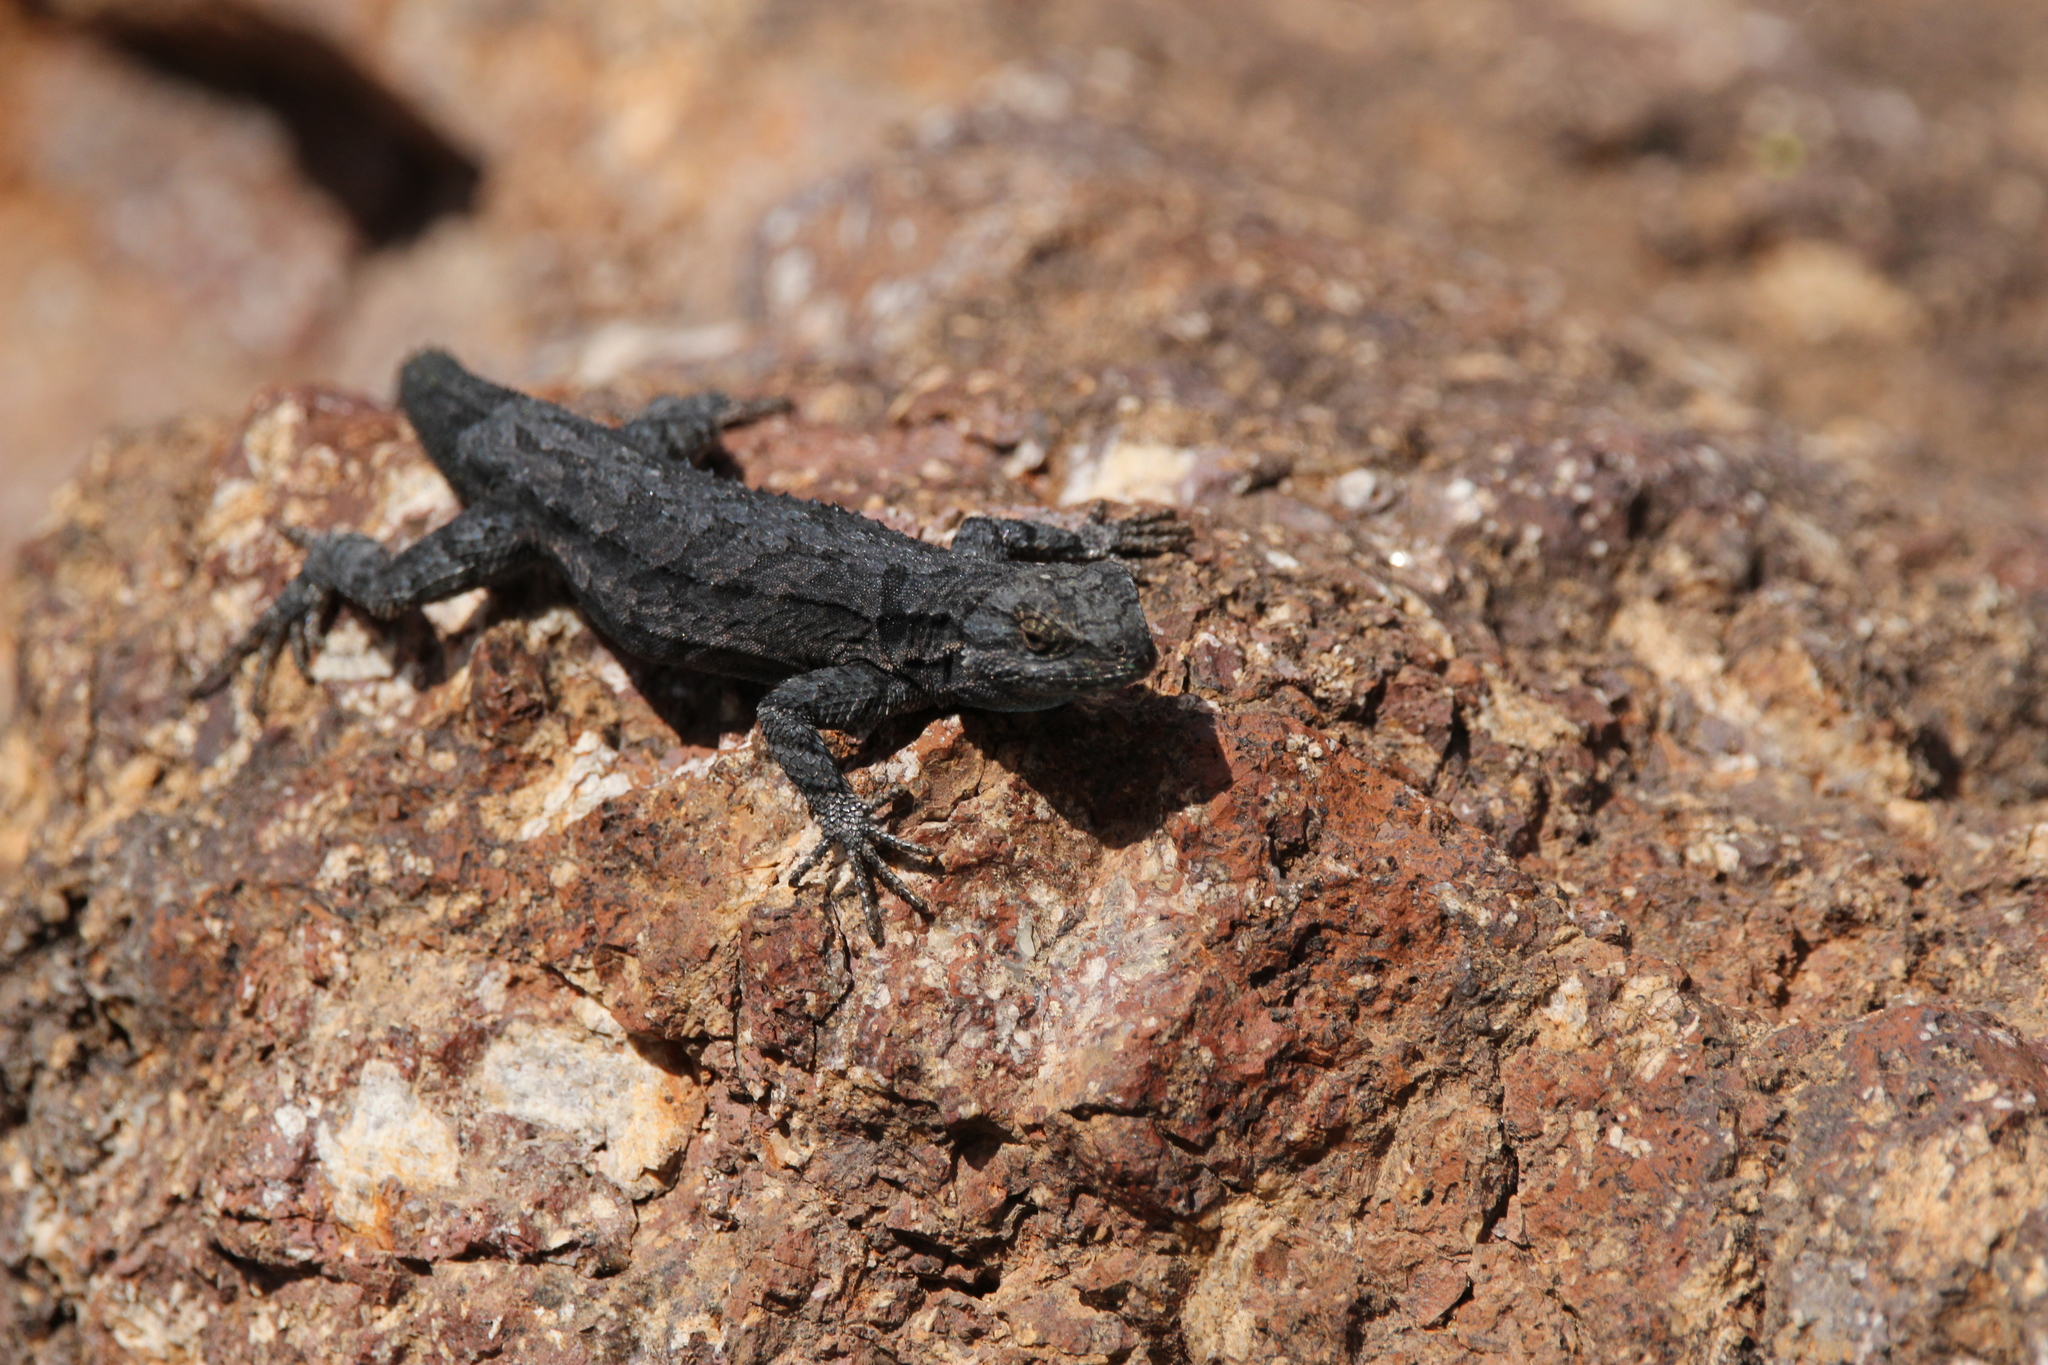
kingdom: Animalia
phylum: Chordata
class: Squamata
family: Phrynosomatidae
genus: Urosaurus
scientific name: Urosaurus ornatus
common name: Ornate tree lizard
